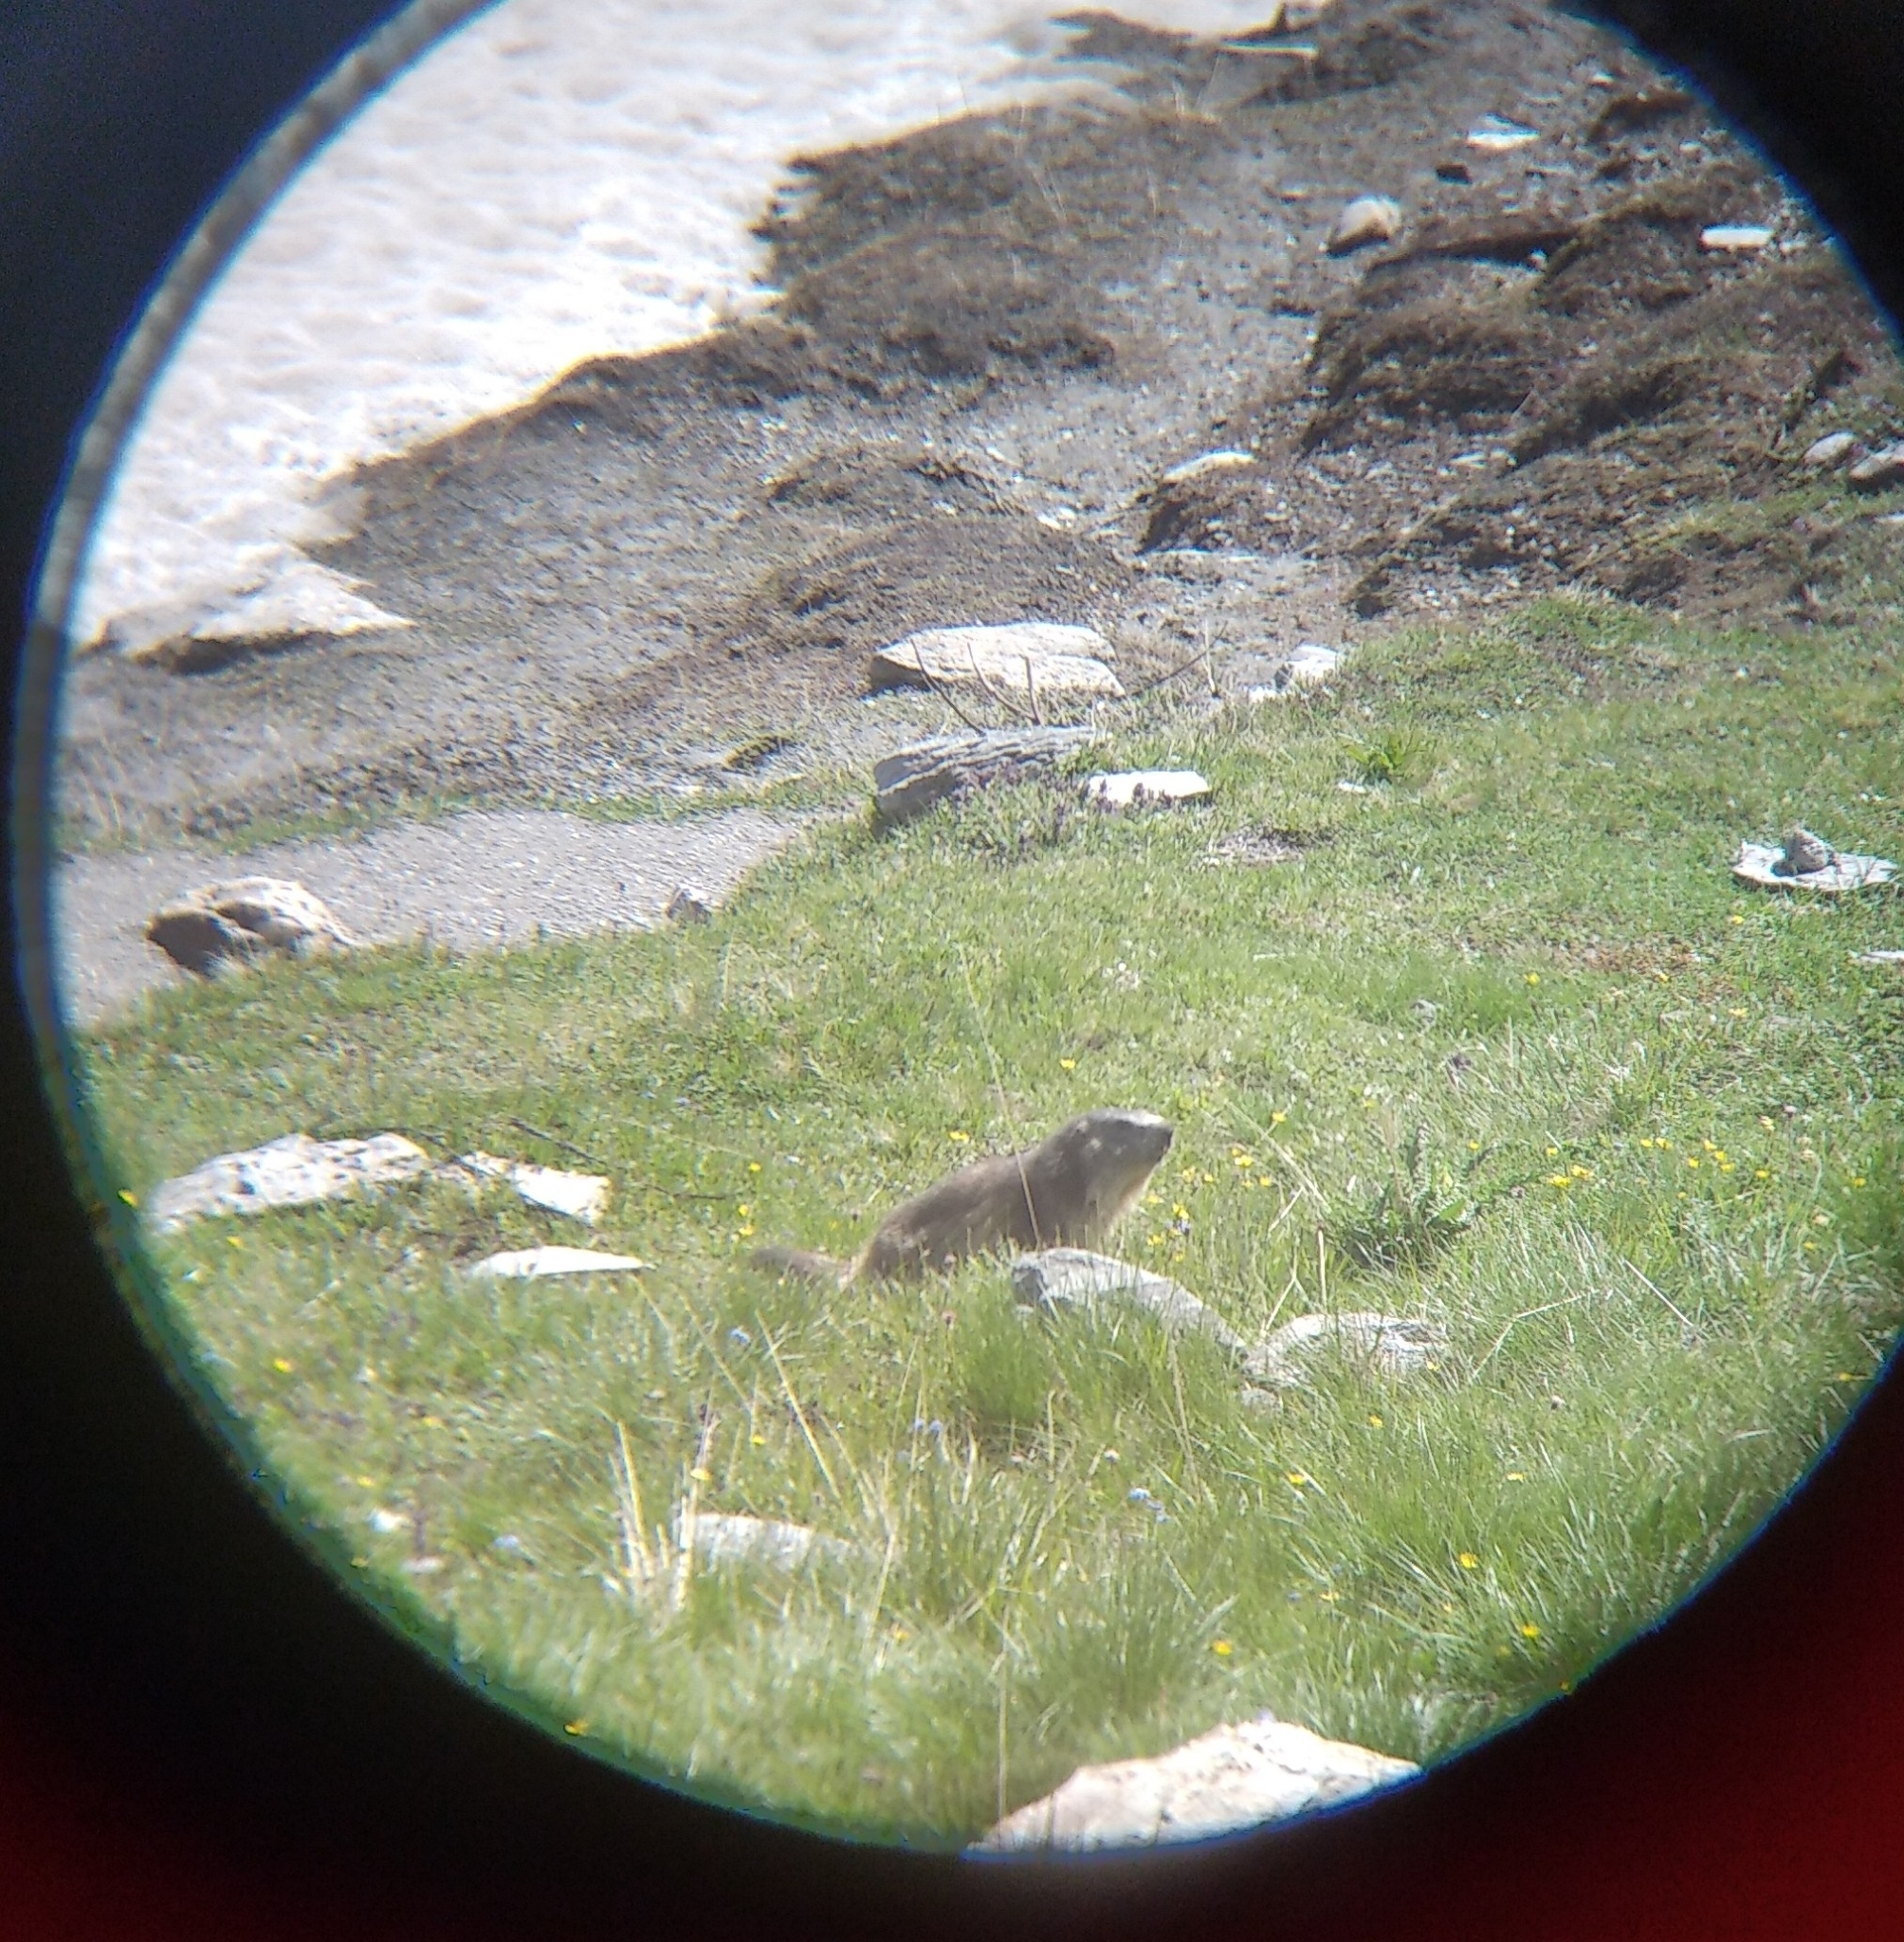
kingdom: Animalia
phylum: Chordata
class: Mammalia
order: Rodentia
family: Sciuridae
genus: Marmota
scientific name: Marmota marmota
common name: Alpine marmot
